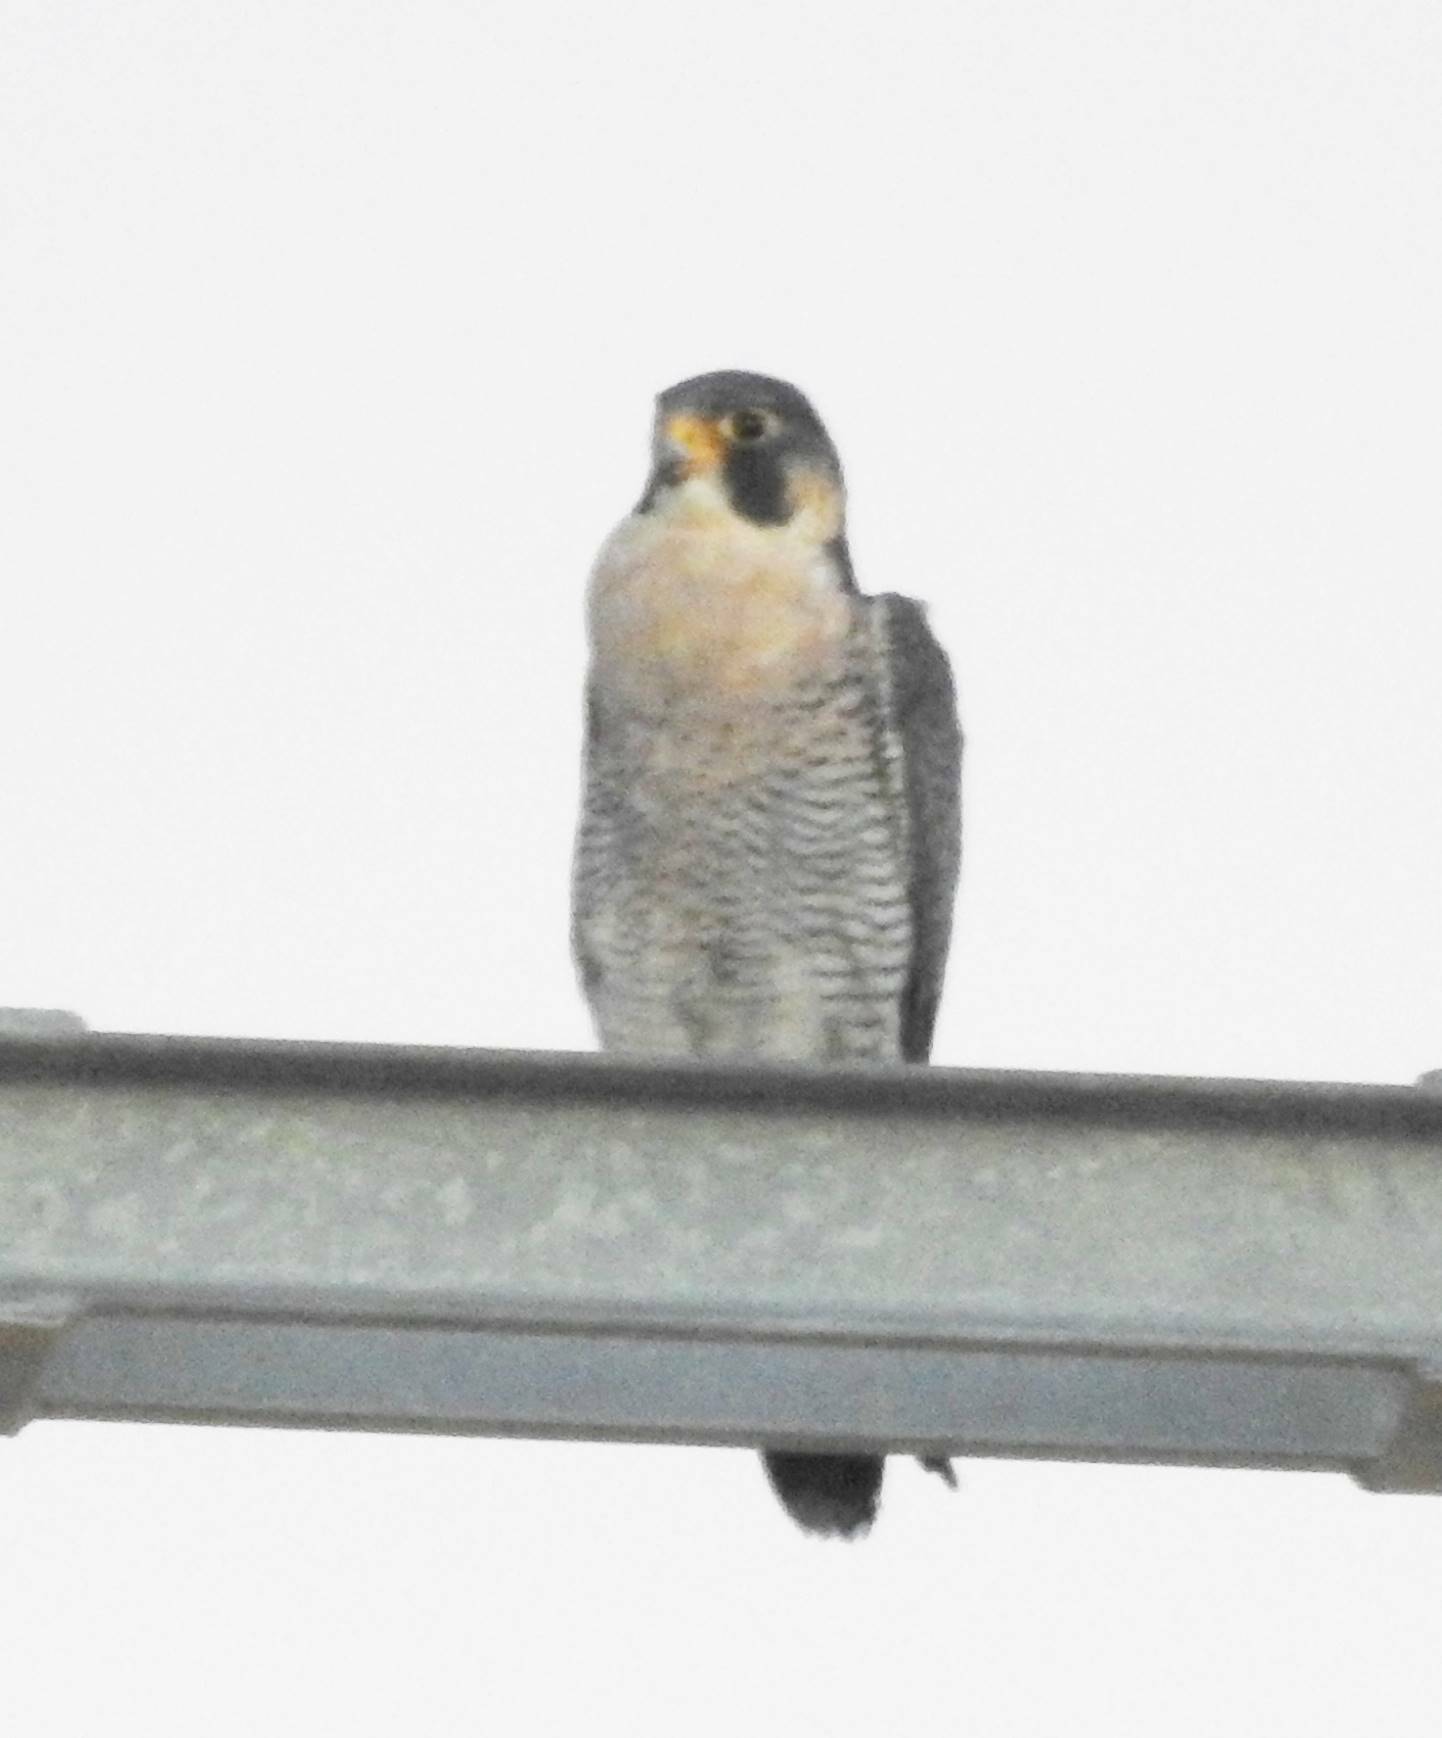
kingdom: Animalia
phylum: Chordata
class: Aves
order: Falconiformes
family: Falconidae
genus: Falco
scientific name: Falco peregrinus
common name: Peregrine falcon
